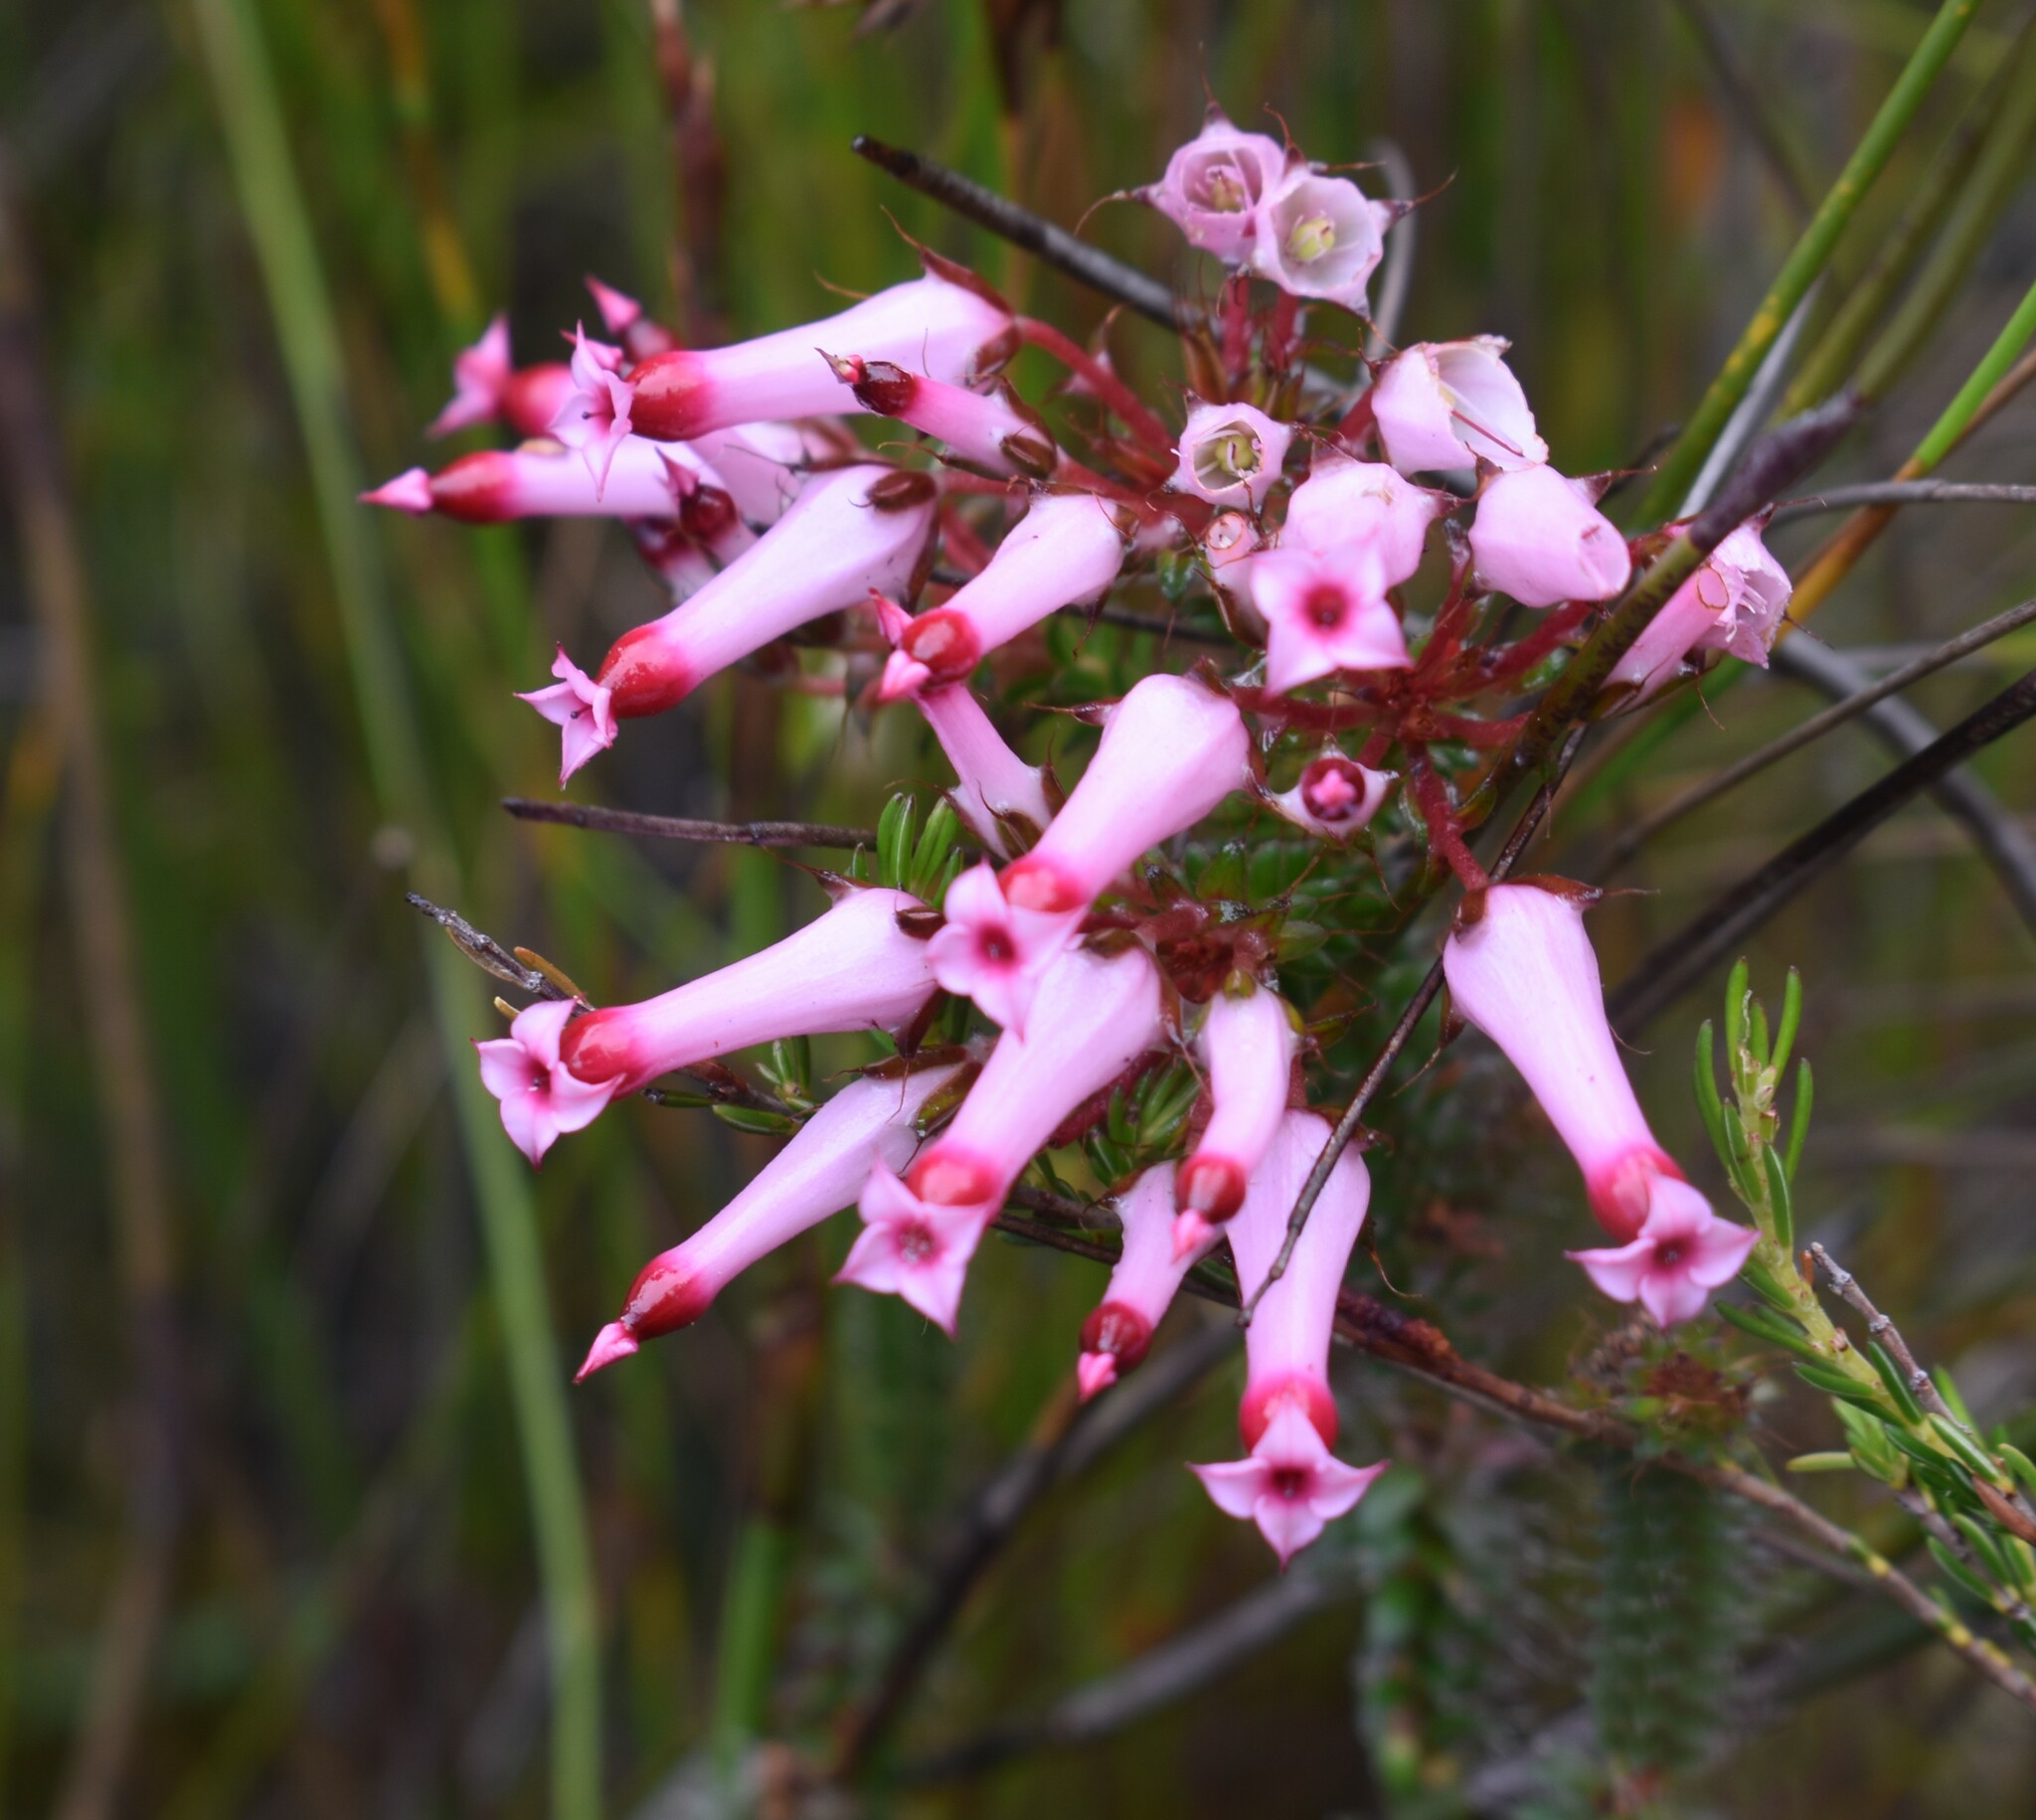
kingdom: Plantae
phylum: Tracheophyta
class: Magnoliopsida
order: Ericales
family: Ericaceae
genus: Erica
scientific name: Erica retorta
